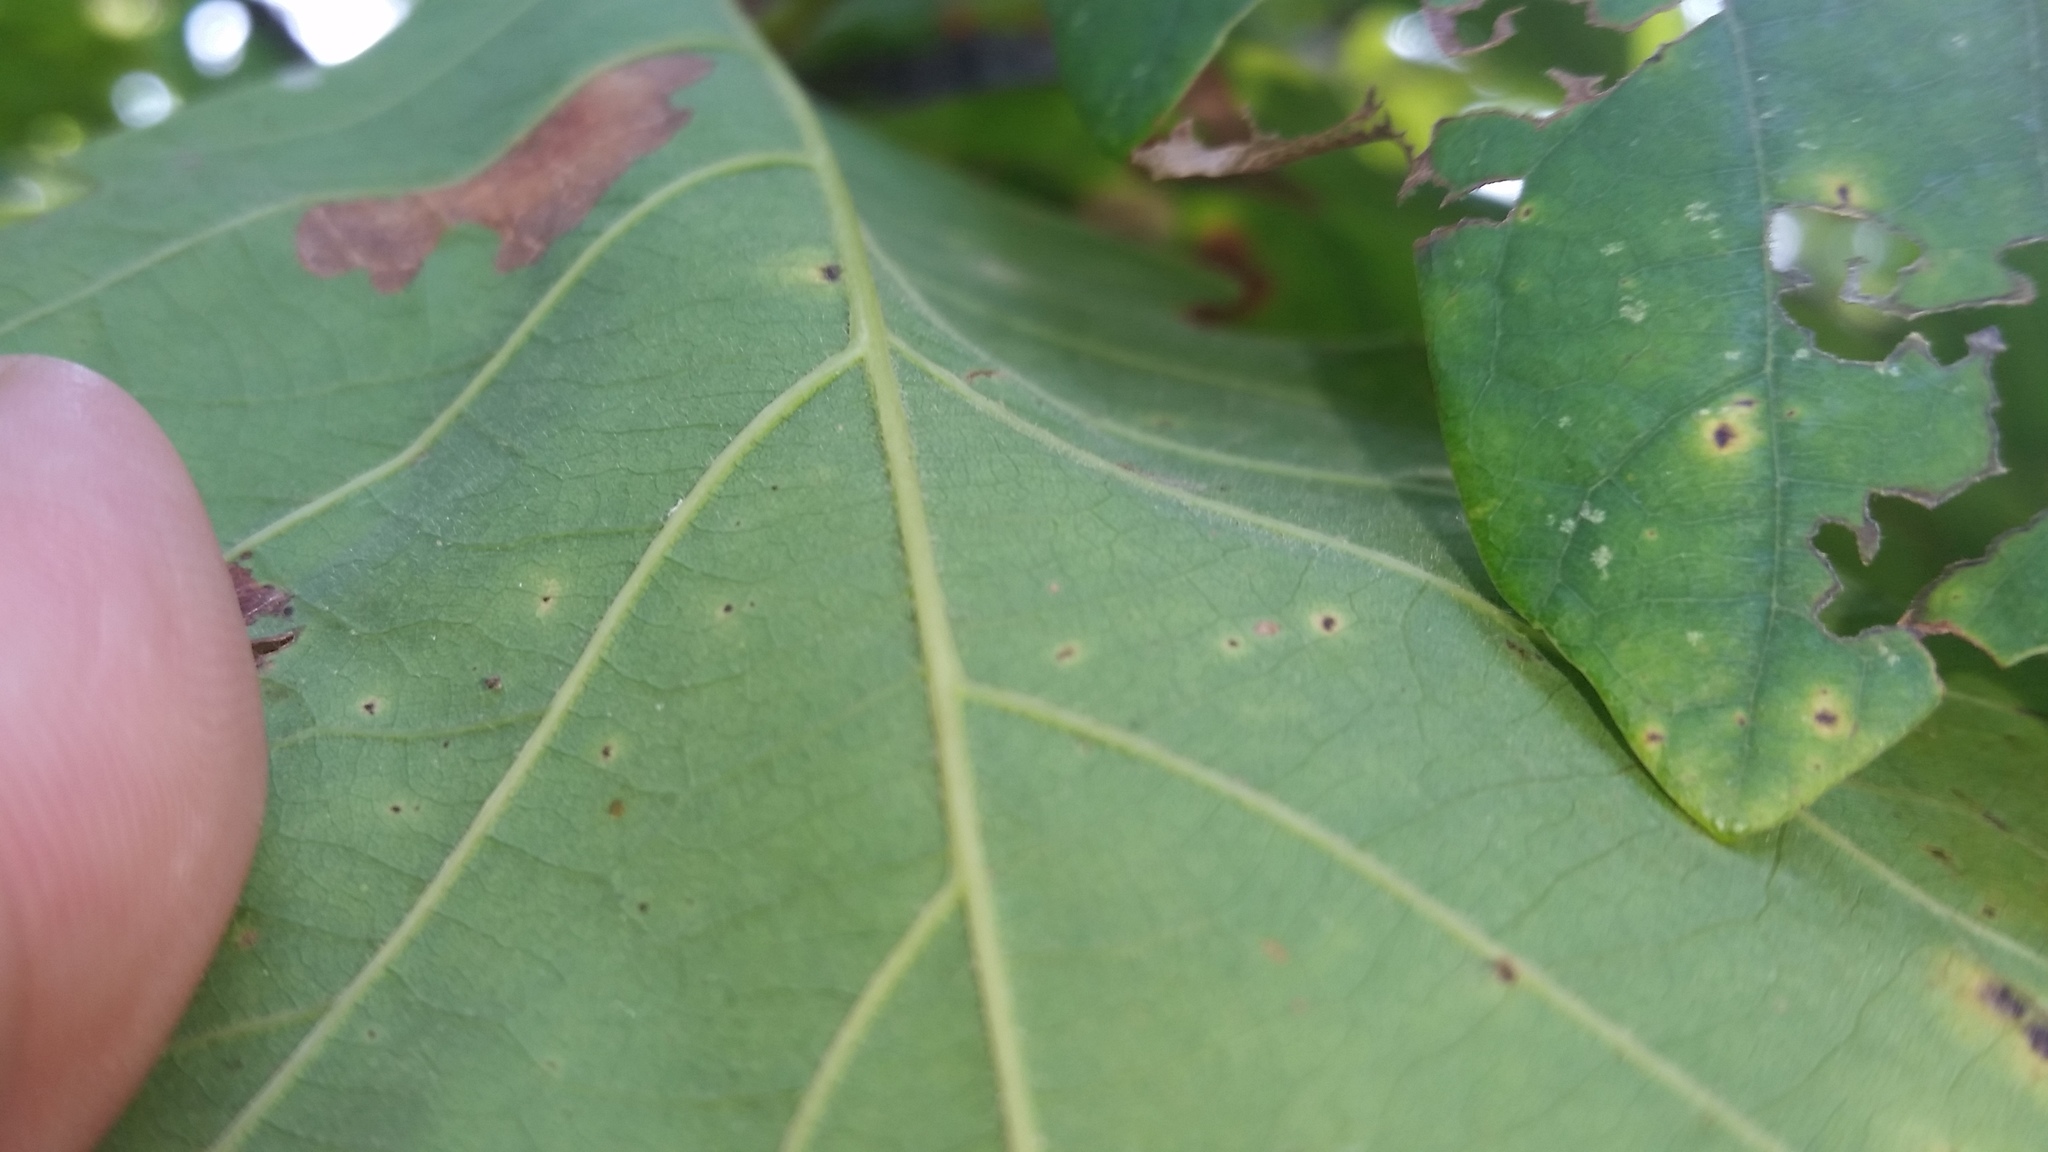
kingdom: Plantae
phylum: Tracheophyta
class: Magnoliopsida
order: Fagales
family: Fagaceae
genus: Quercus
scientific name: Quercus bicolor
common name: Swamp white oak
